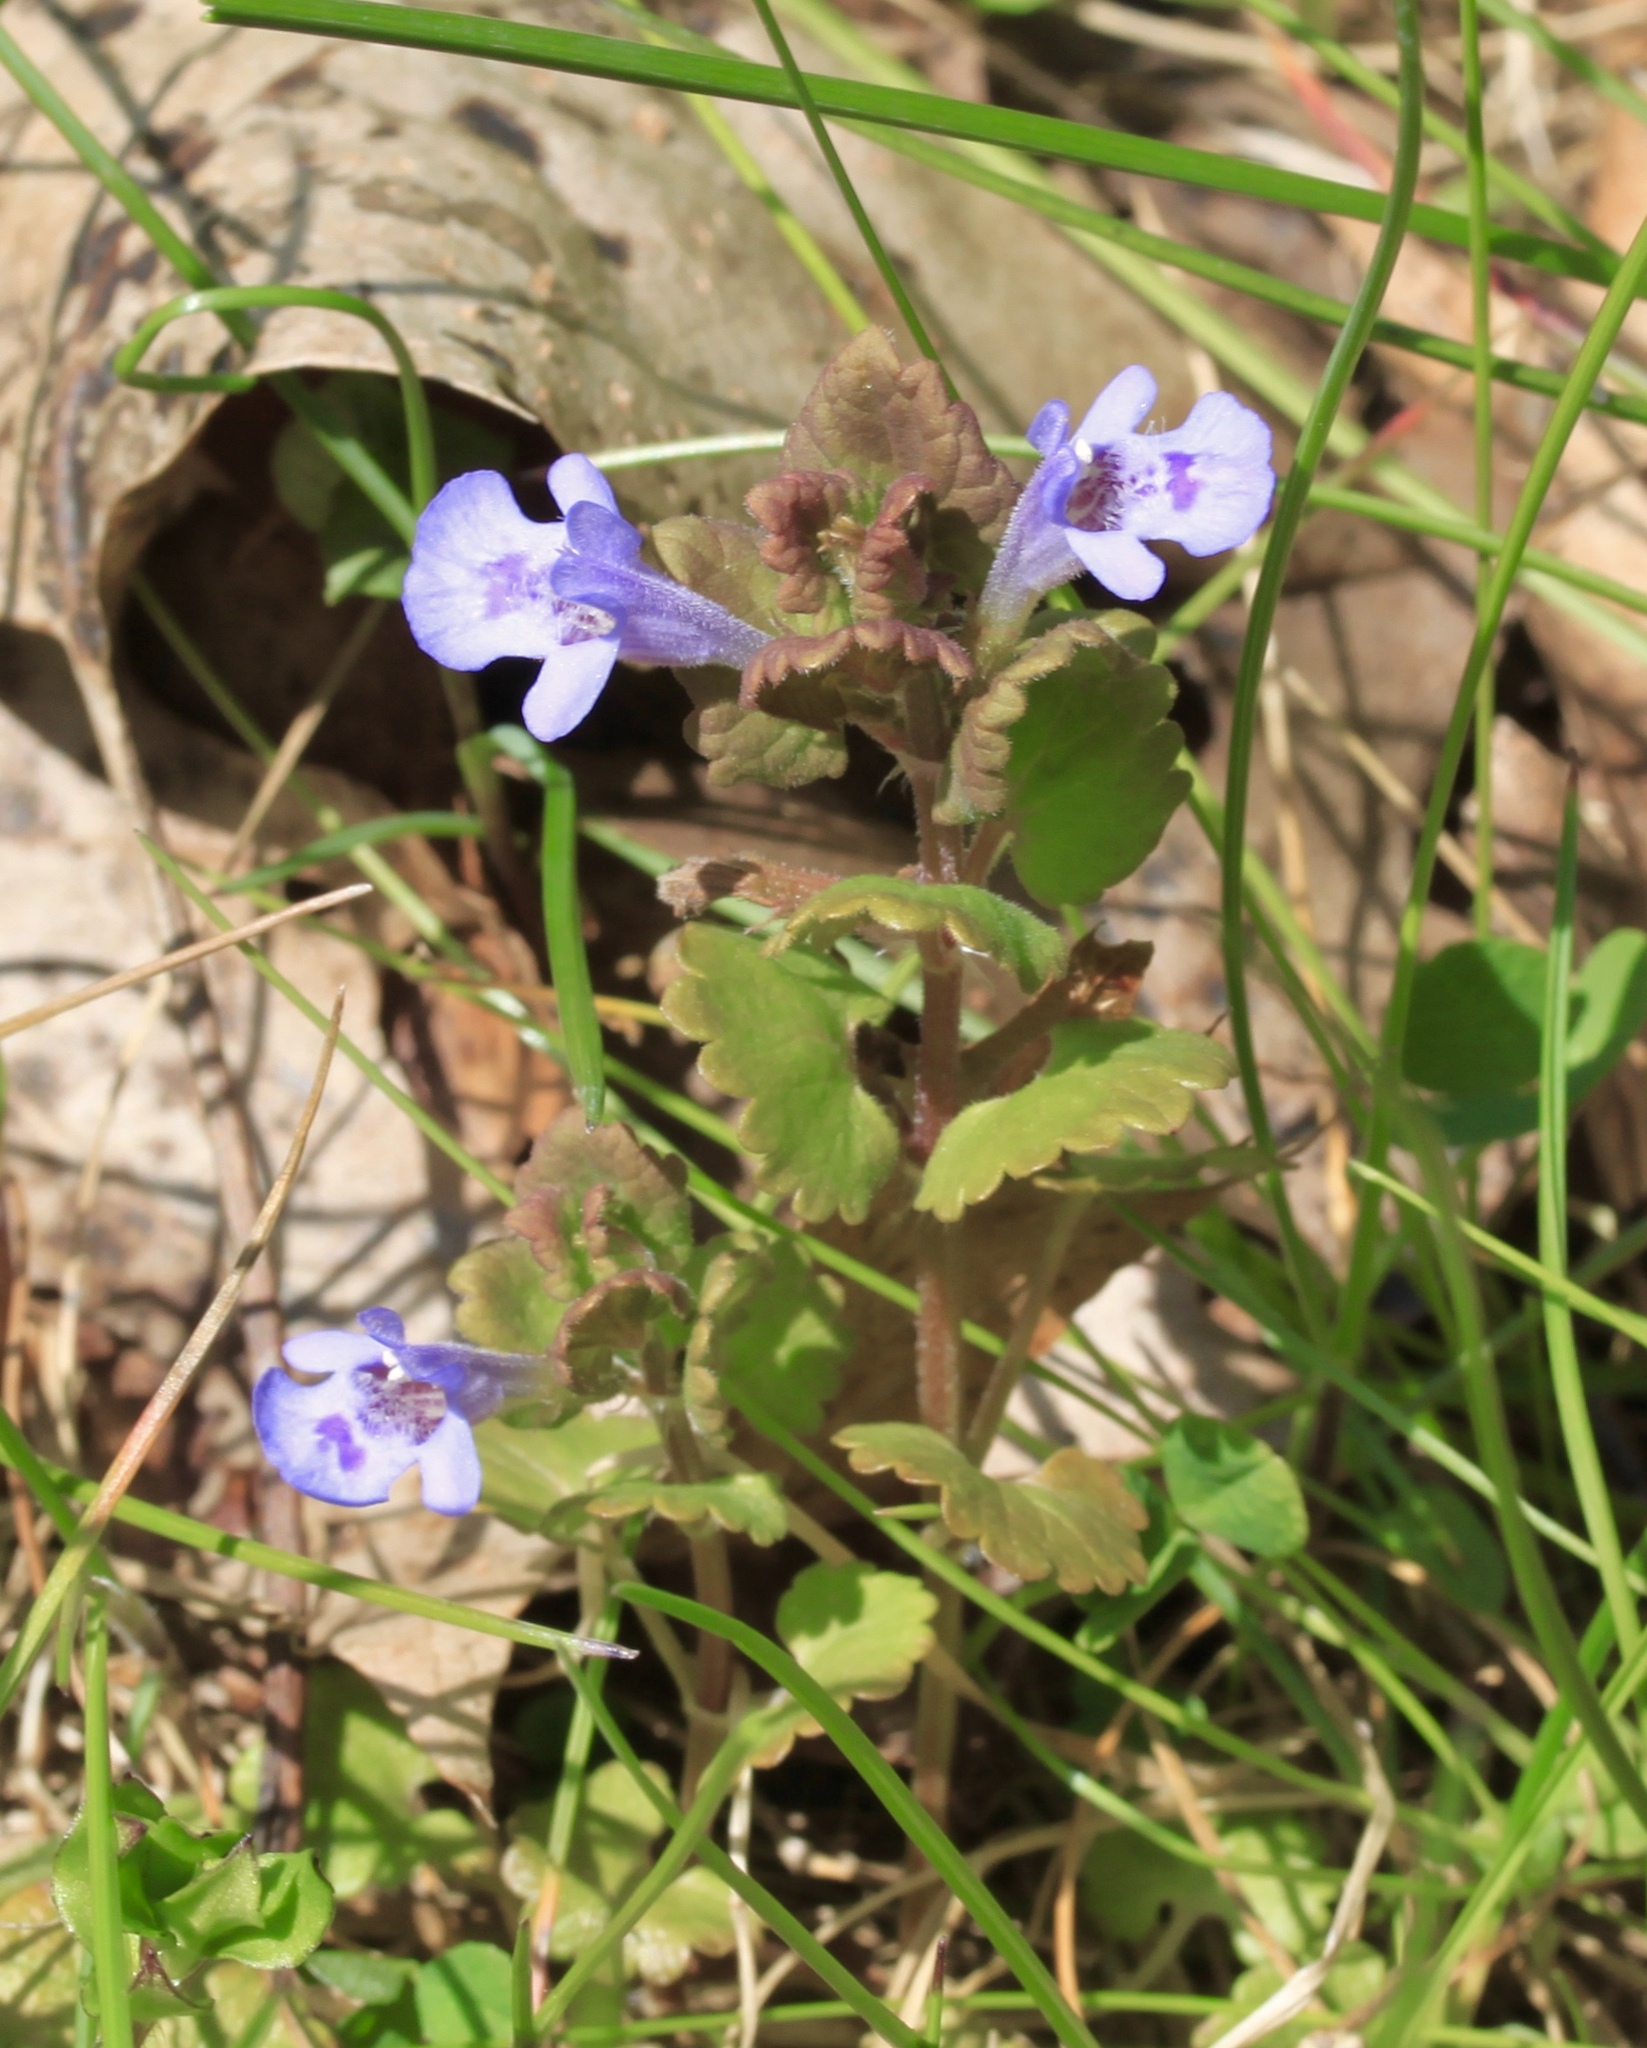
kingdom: Plantae
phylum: Tracheophyta
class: Magnoliopsida
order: Lamiales
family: Lamiaceae
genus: Glechoma
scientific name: Glechoma hederacea
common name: Ground ivy
